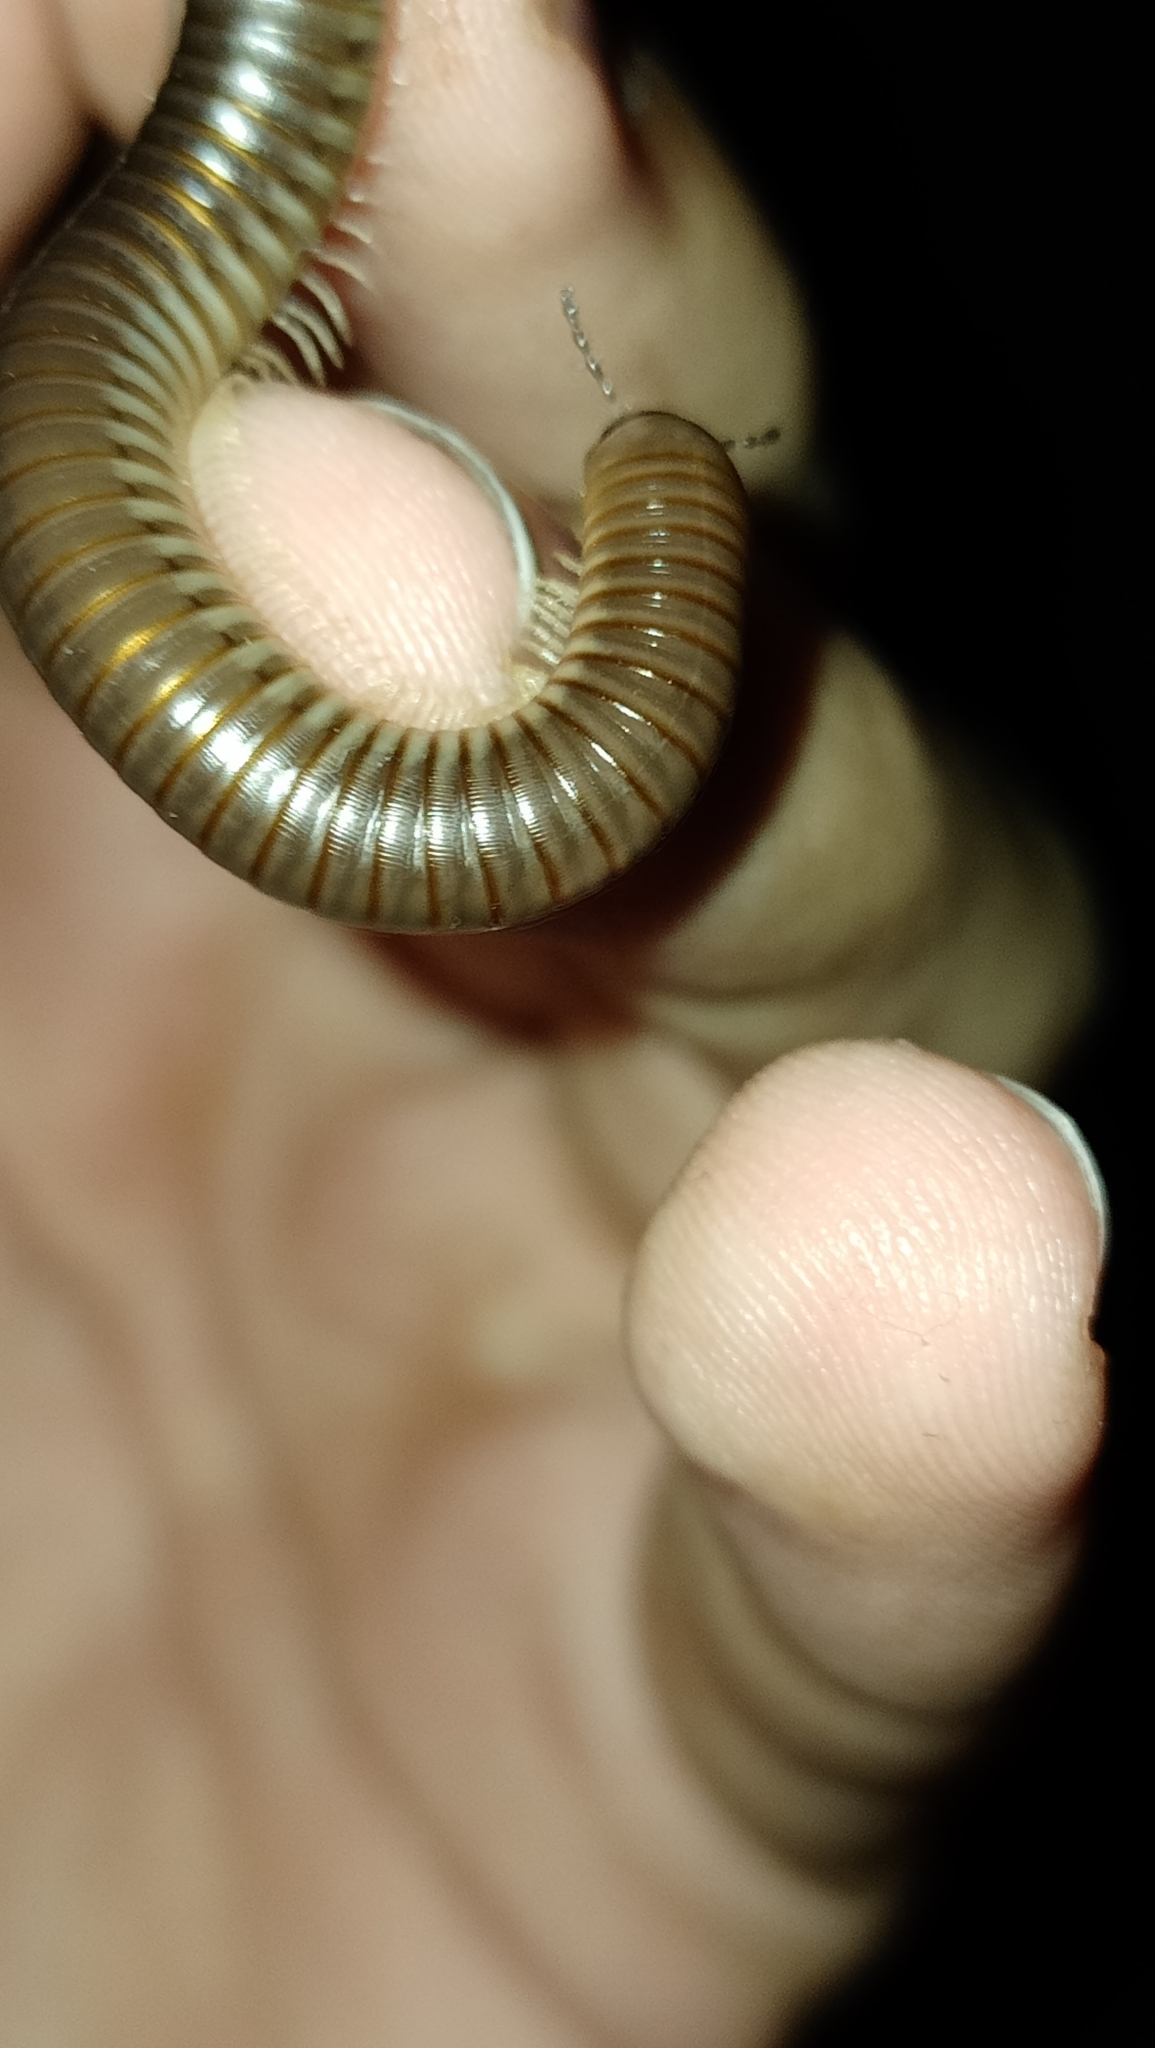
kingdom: Animalia
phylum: Arthropoda
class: Diplopoda
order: Julida
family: Julidae
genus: Pachyiulus
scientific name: Pachyiulus flavipes
